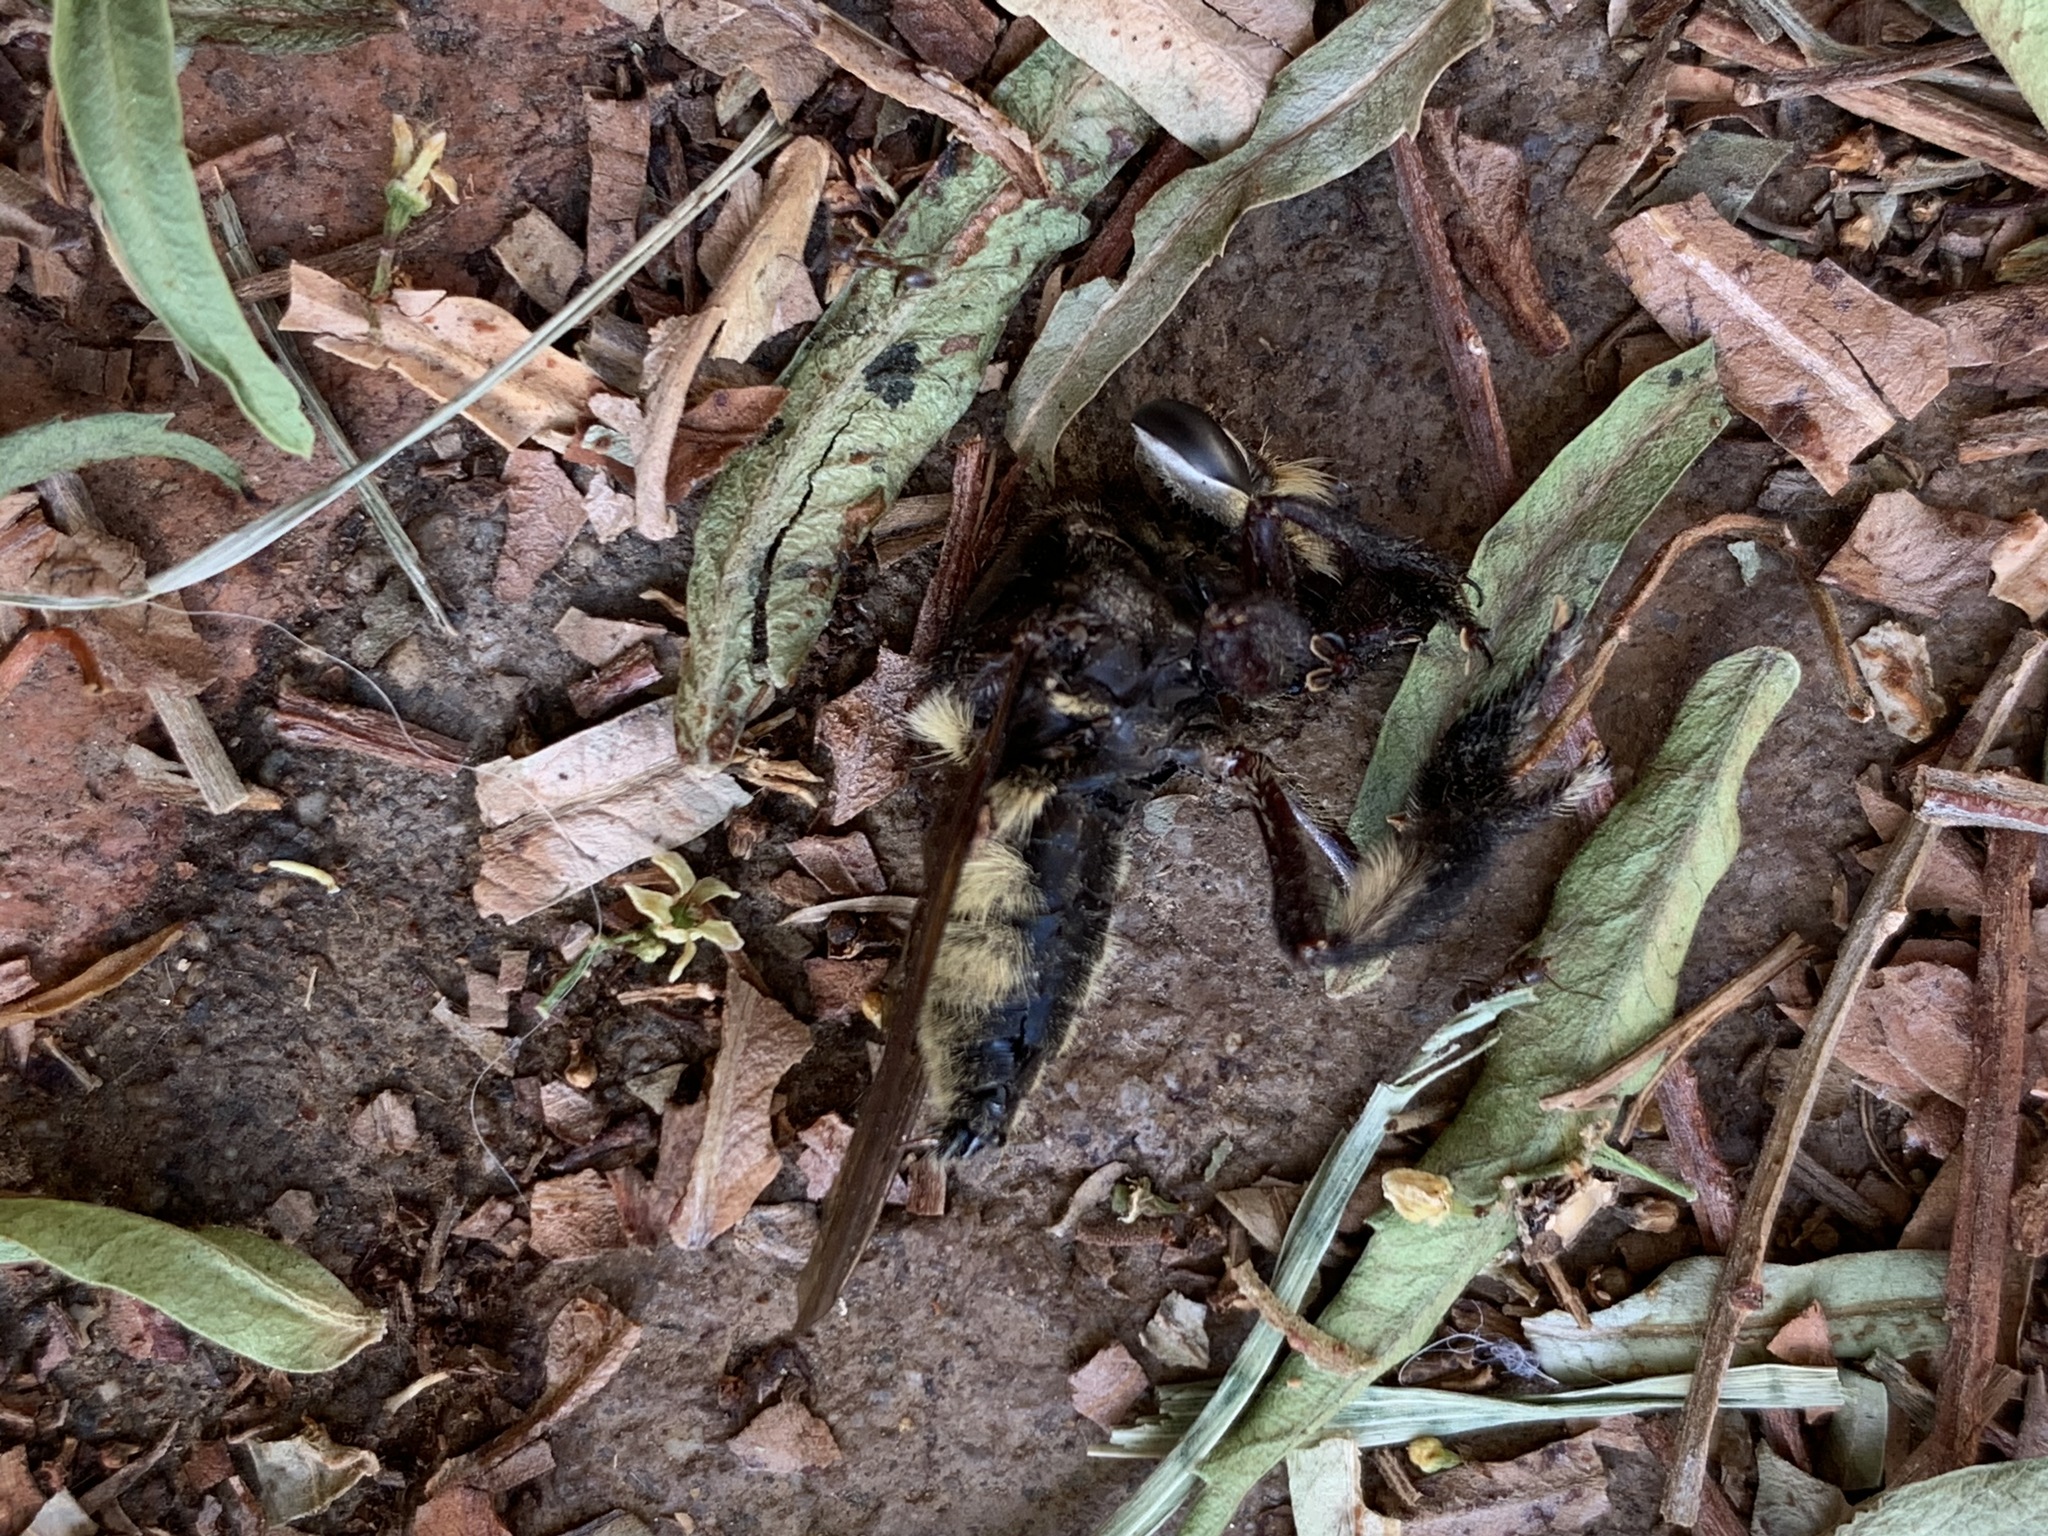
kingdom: Animalia
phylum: Arthropoda
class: Insecta
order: Diptera
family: Asilidae
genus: Mallophora
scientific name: Mallophora fautrix
